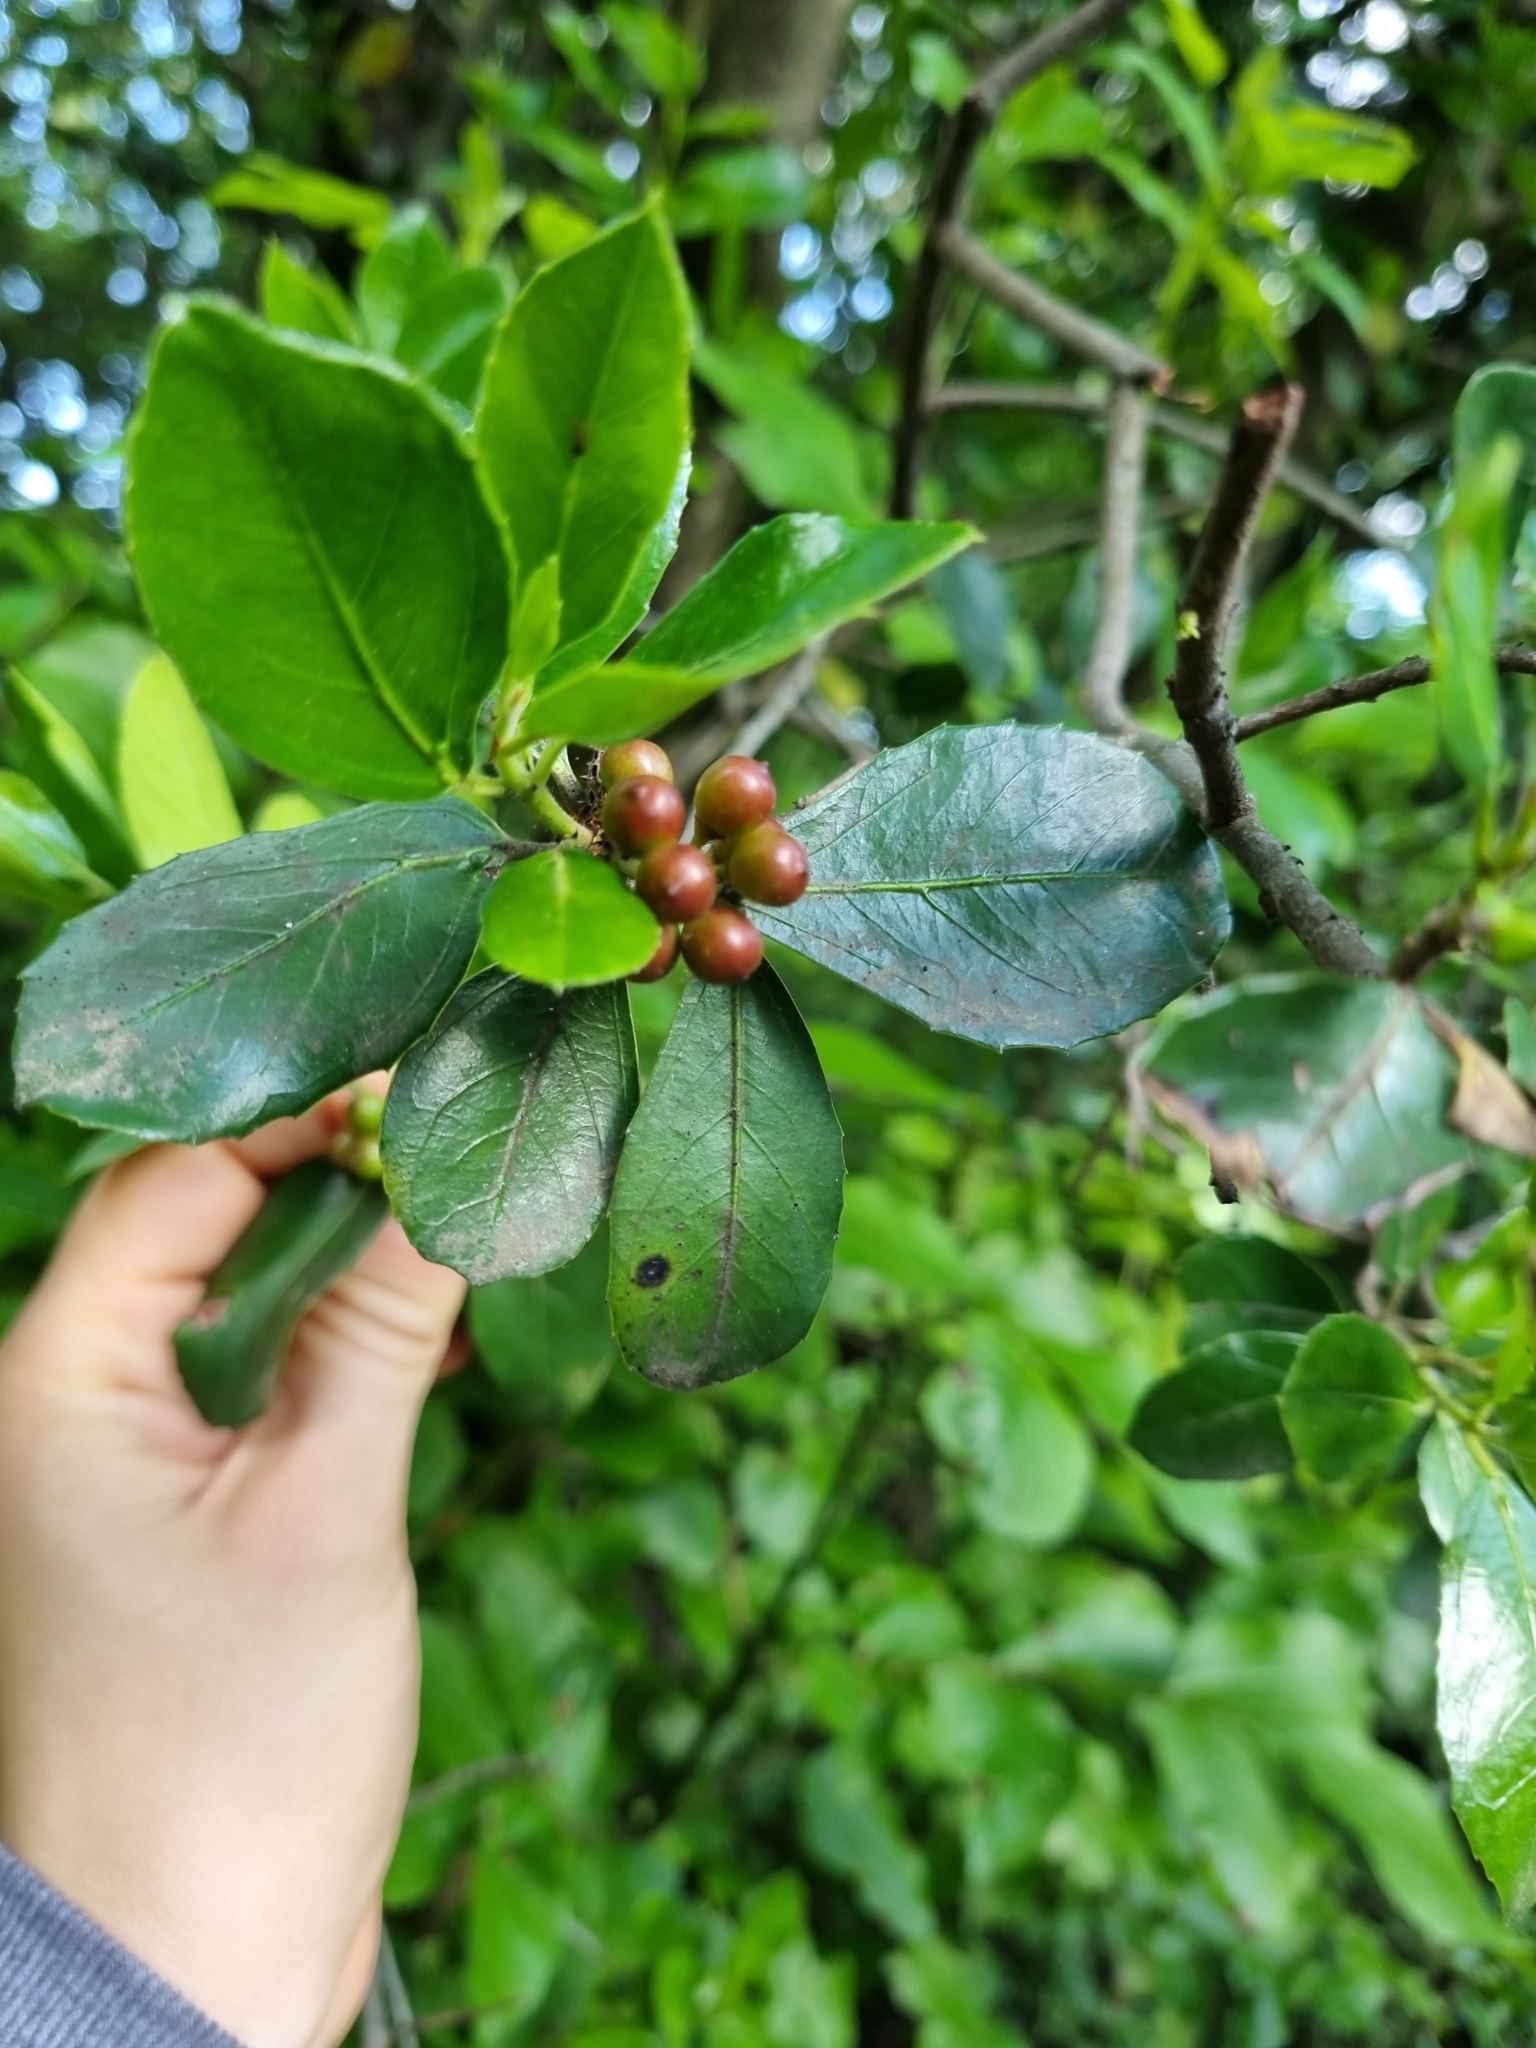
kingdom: Plantae
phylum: Tracheophyta
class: Magnoliopsida
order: Rosales
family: Rhamnaceae
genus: Rhamnus
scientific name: Rhamnus alaternus
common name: Mediterranean buckthorn
